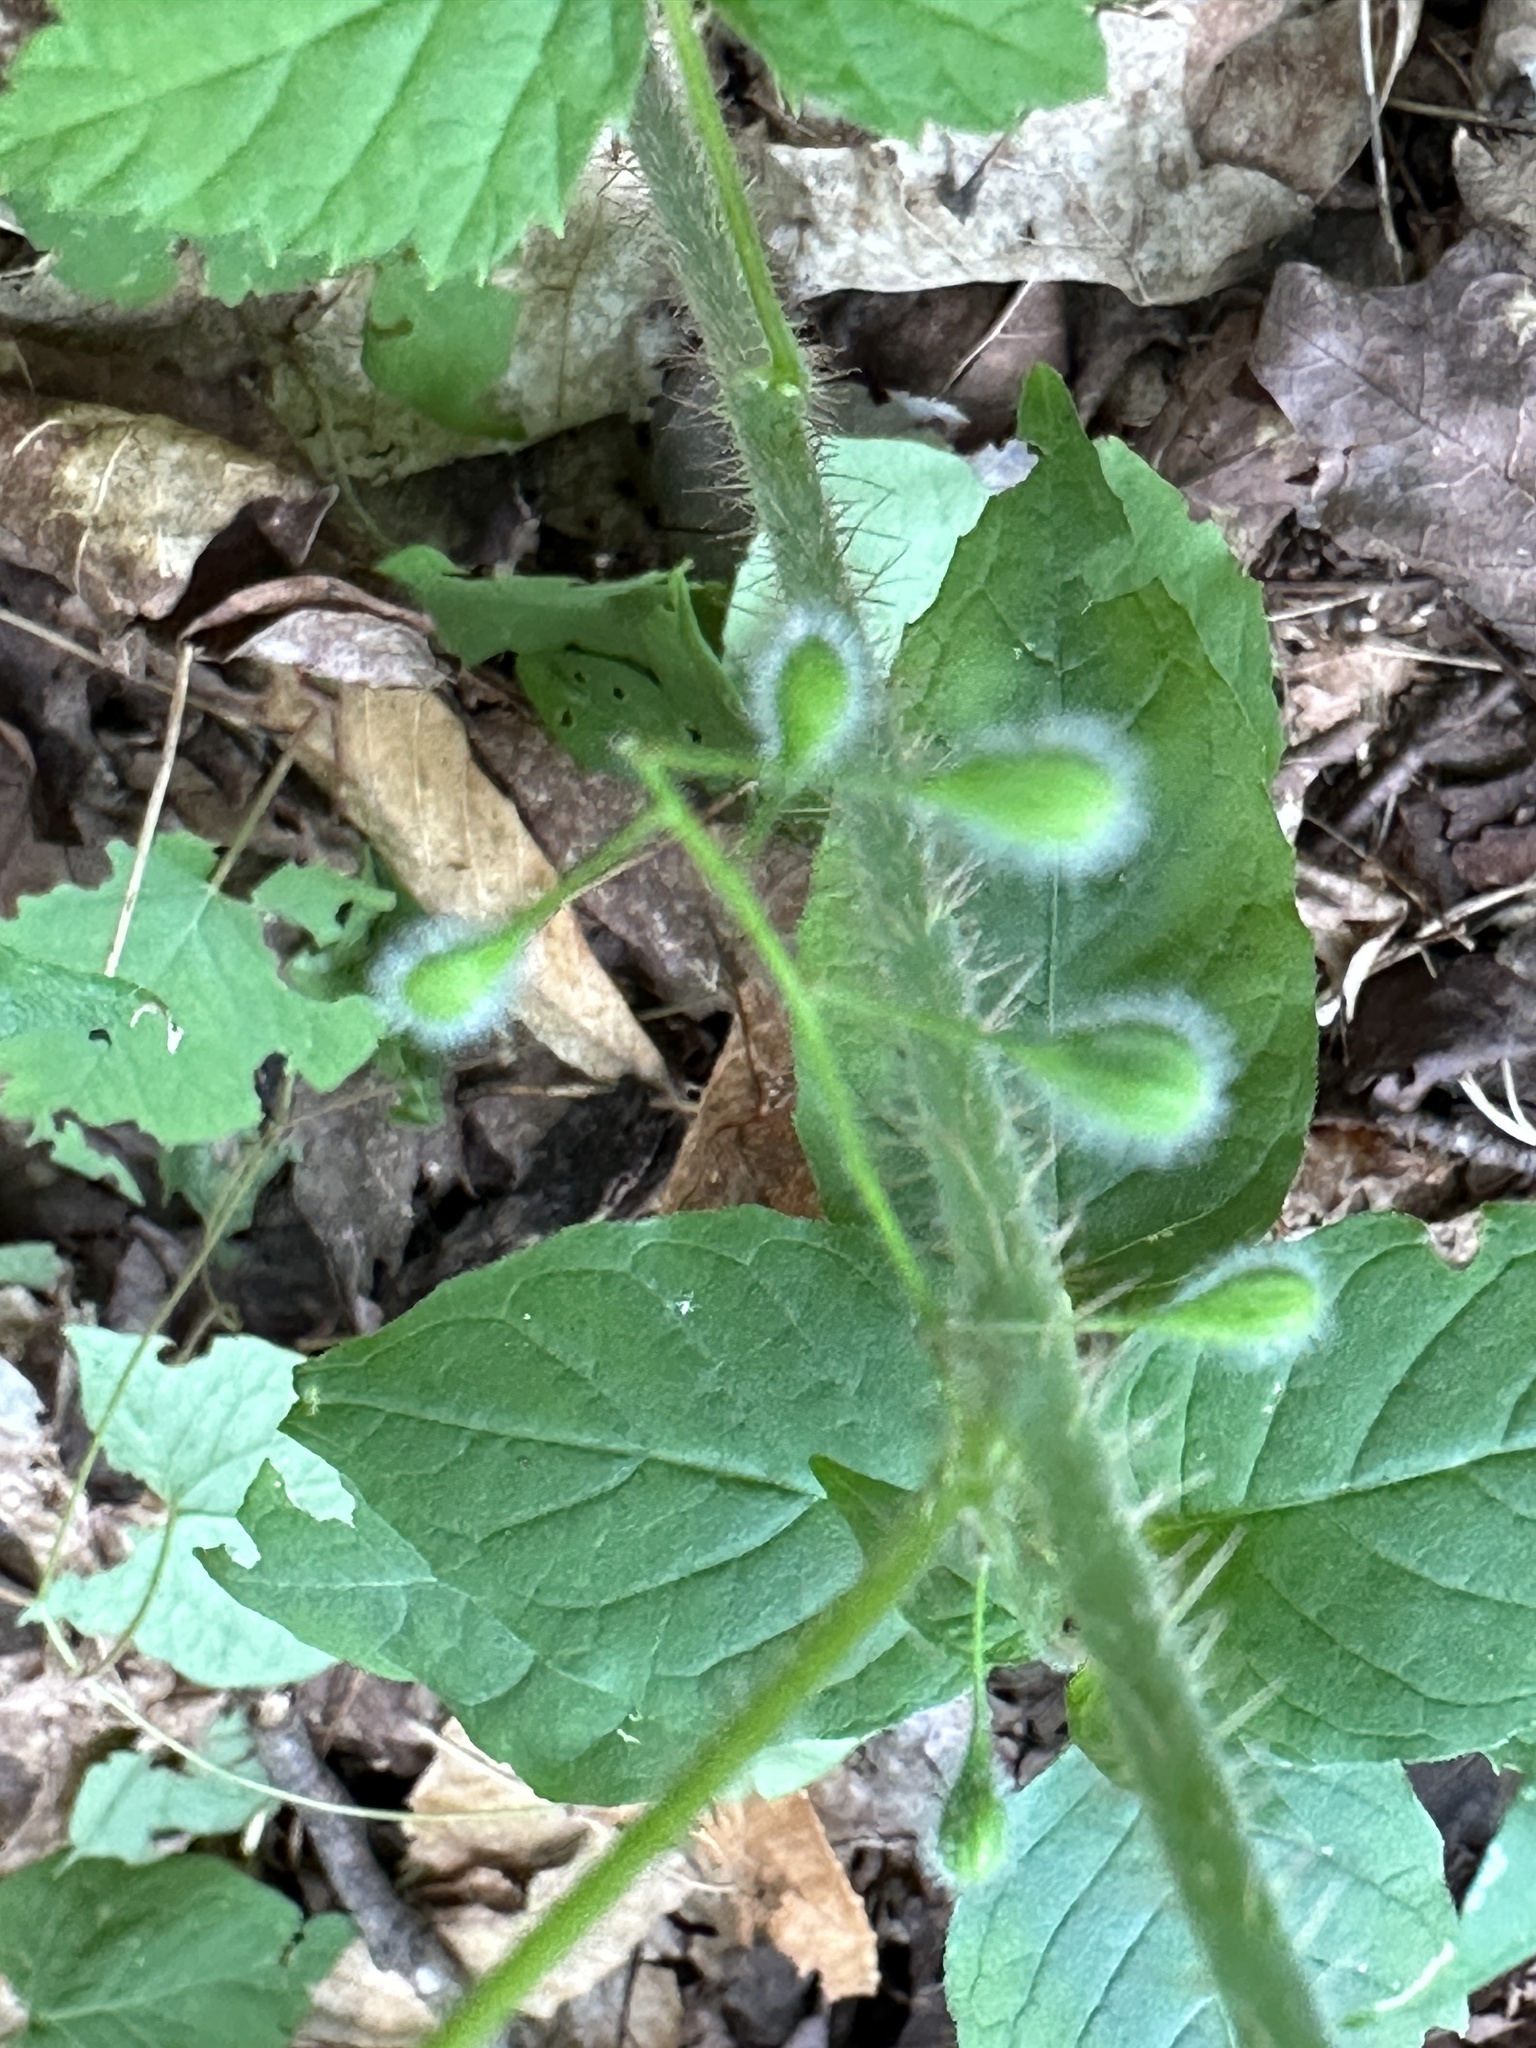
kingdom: Plantae
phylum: Tracheophyta
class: Magnoliopsida
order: Myrtales
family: Onagraceae
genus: Circaea
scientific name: Circaea canadensis
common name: Broad-leaved enchanter's nightshade
